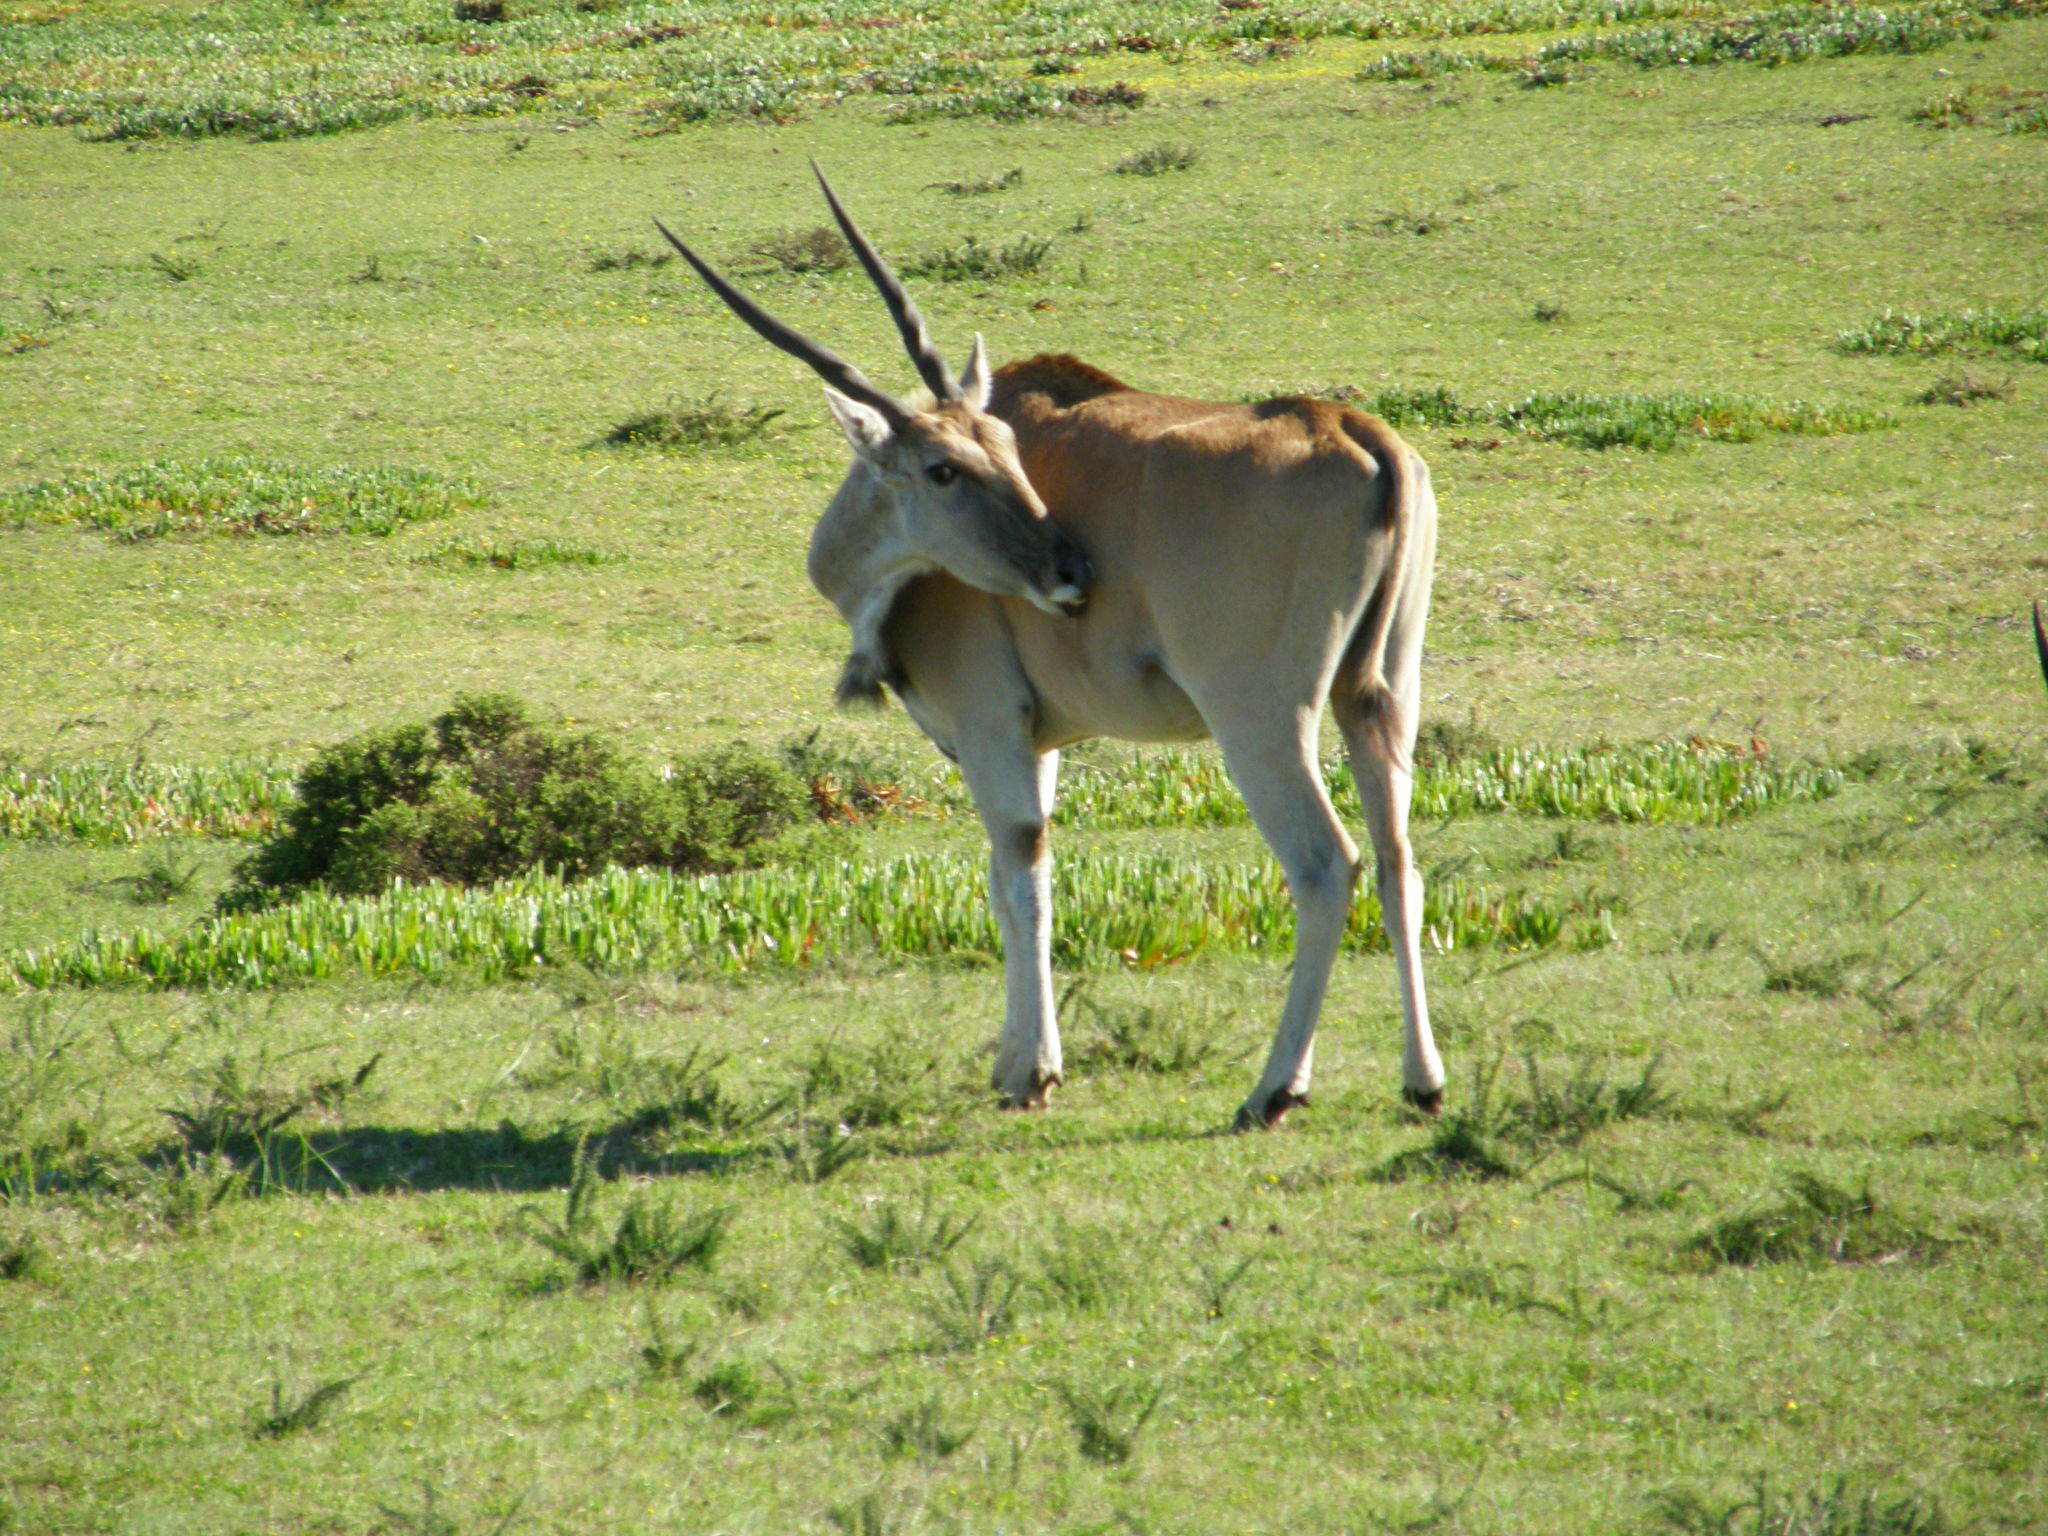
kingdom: Animalia
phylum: Chordata
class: Mammalia
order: Artiodactyla
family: Bovidae
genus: Taurotragus
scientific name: Taurotragus oryx
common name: Common eland
